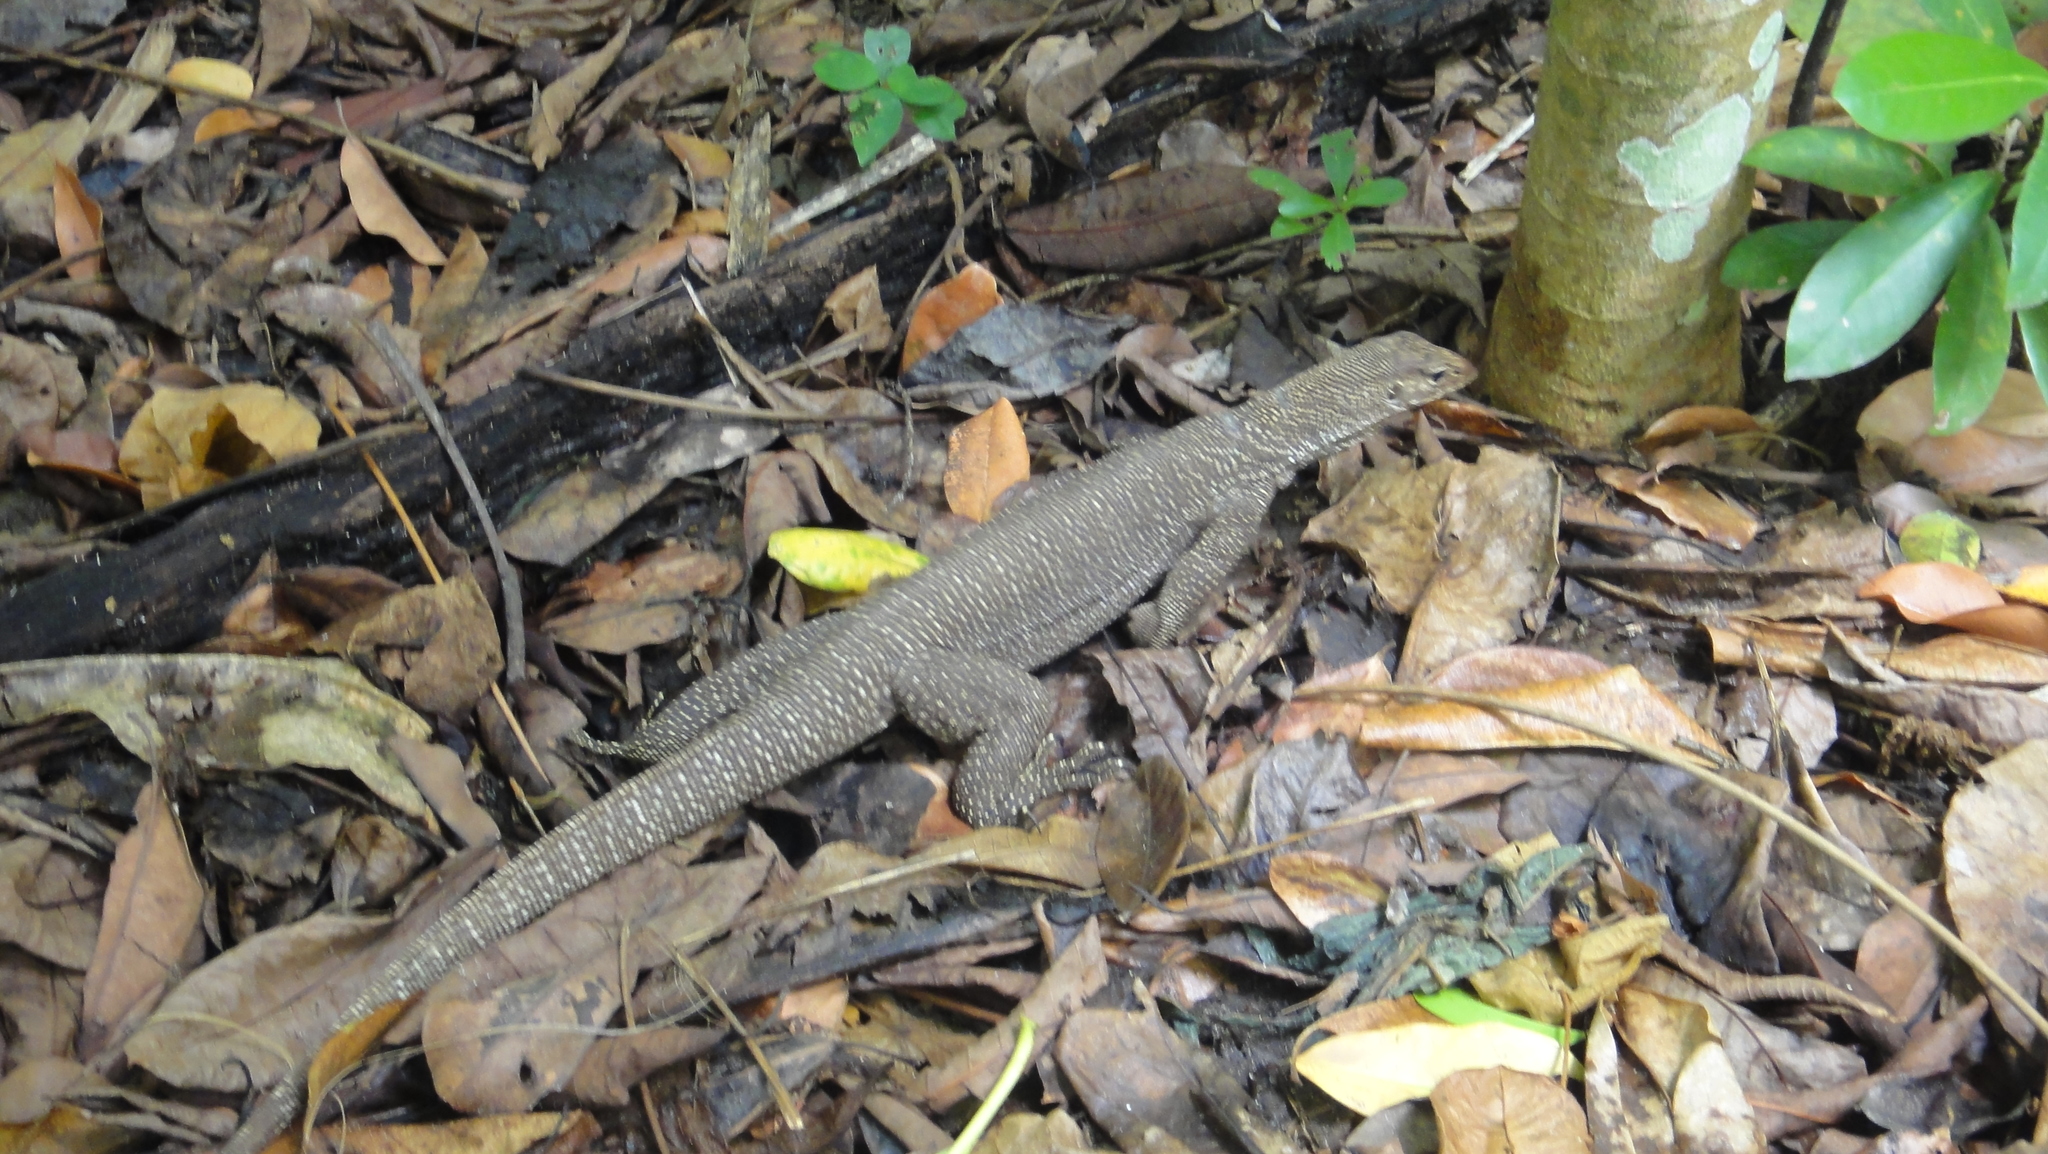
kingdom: Animalia
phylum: Chordata
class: Squamata
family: Varanidae
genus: Varanus
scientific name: Varanus nebulosus
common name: Clouded monitor
